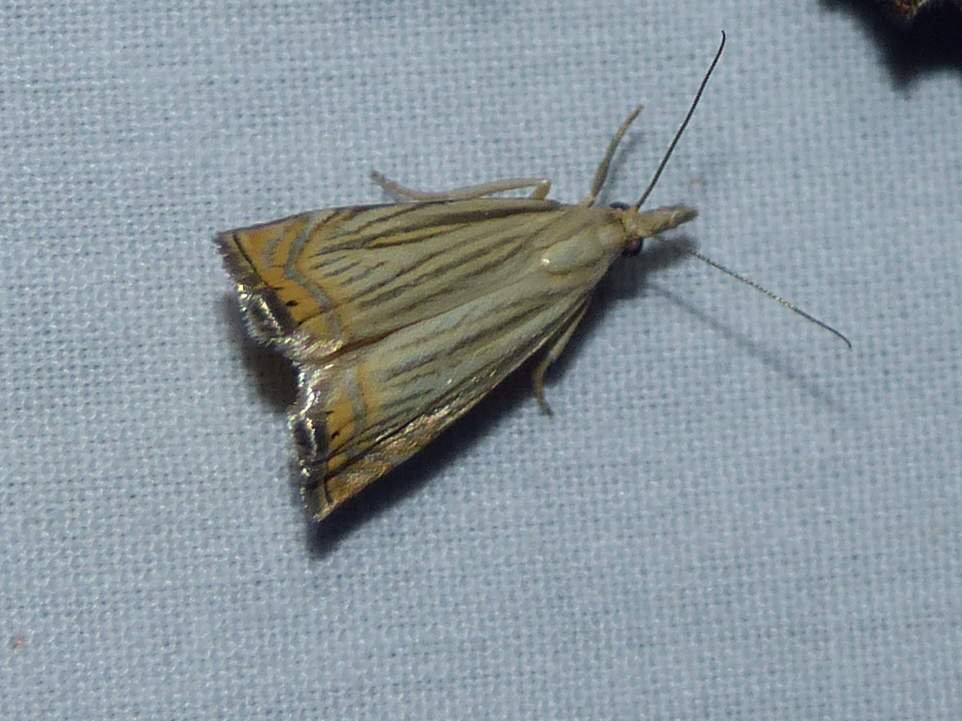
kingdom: Animalia
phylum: Arthropoda
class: Insecta
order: Lepidoptera
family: Crambidae
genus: Chrysoteuchia
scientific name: Chrysoteuchia topiarius
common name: Topiary grass-veneer
